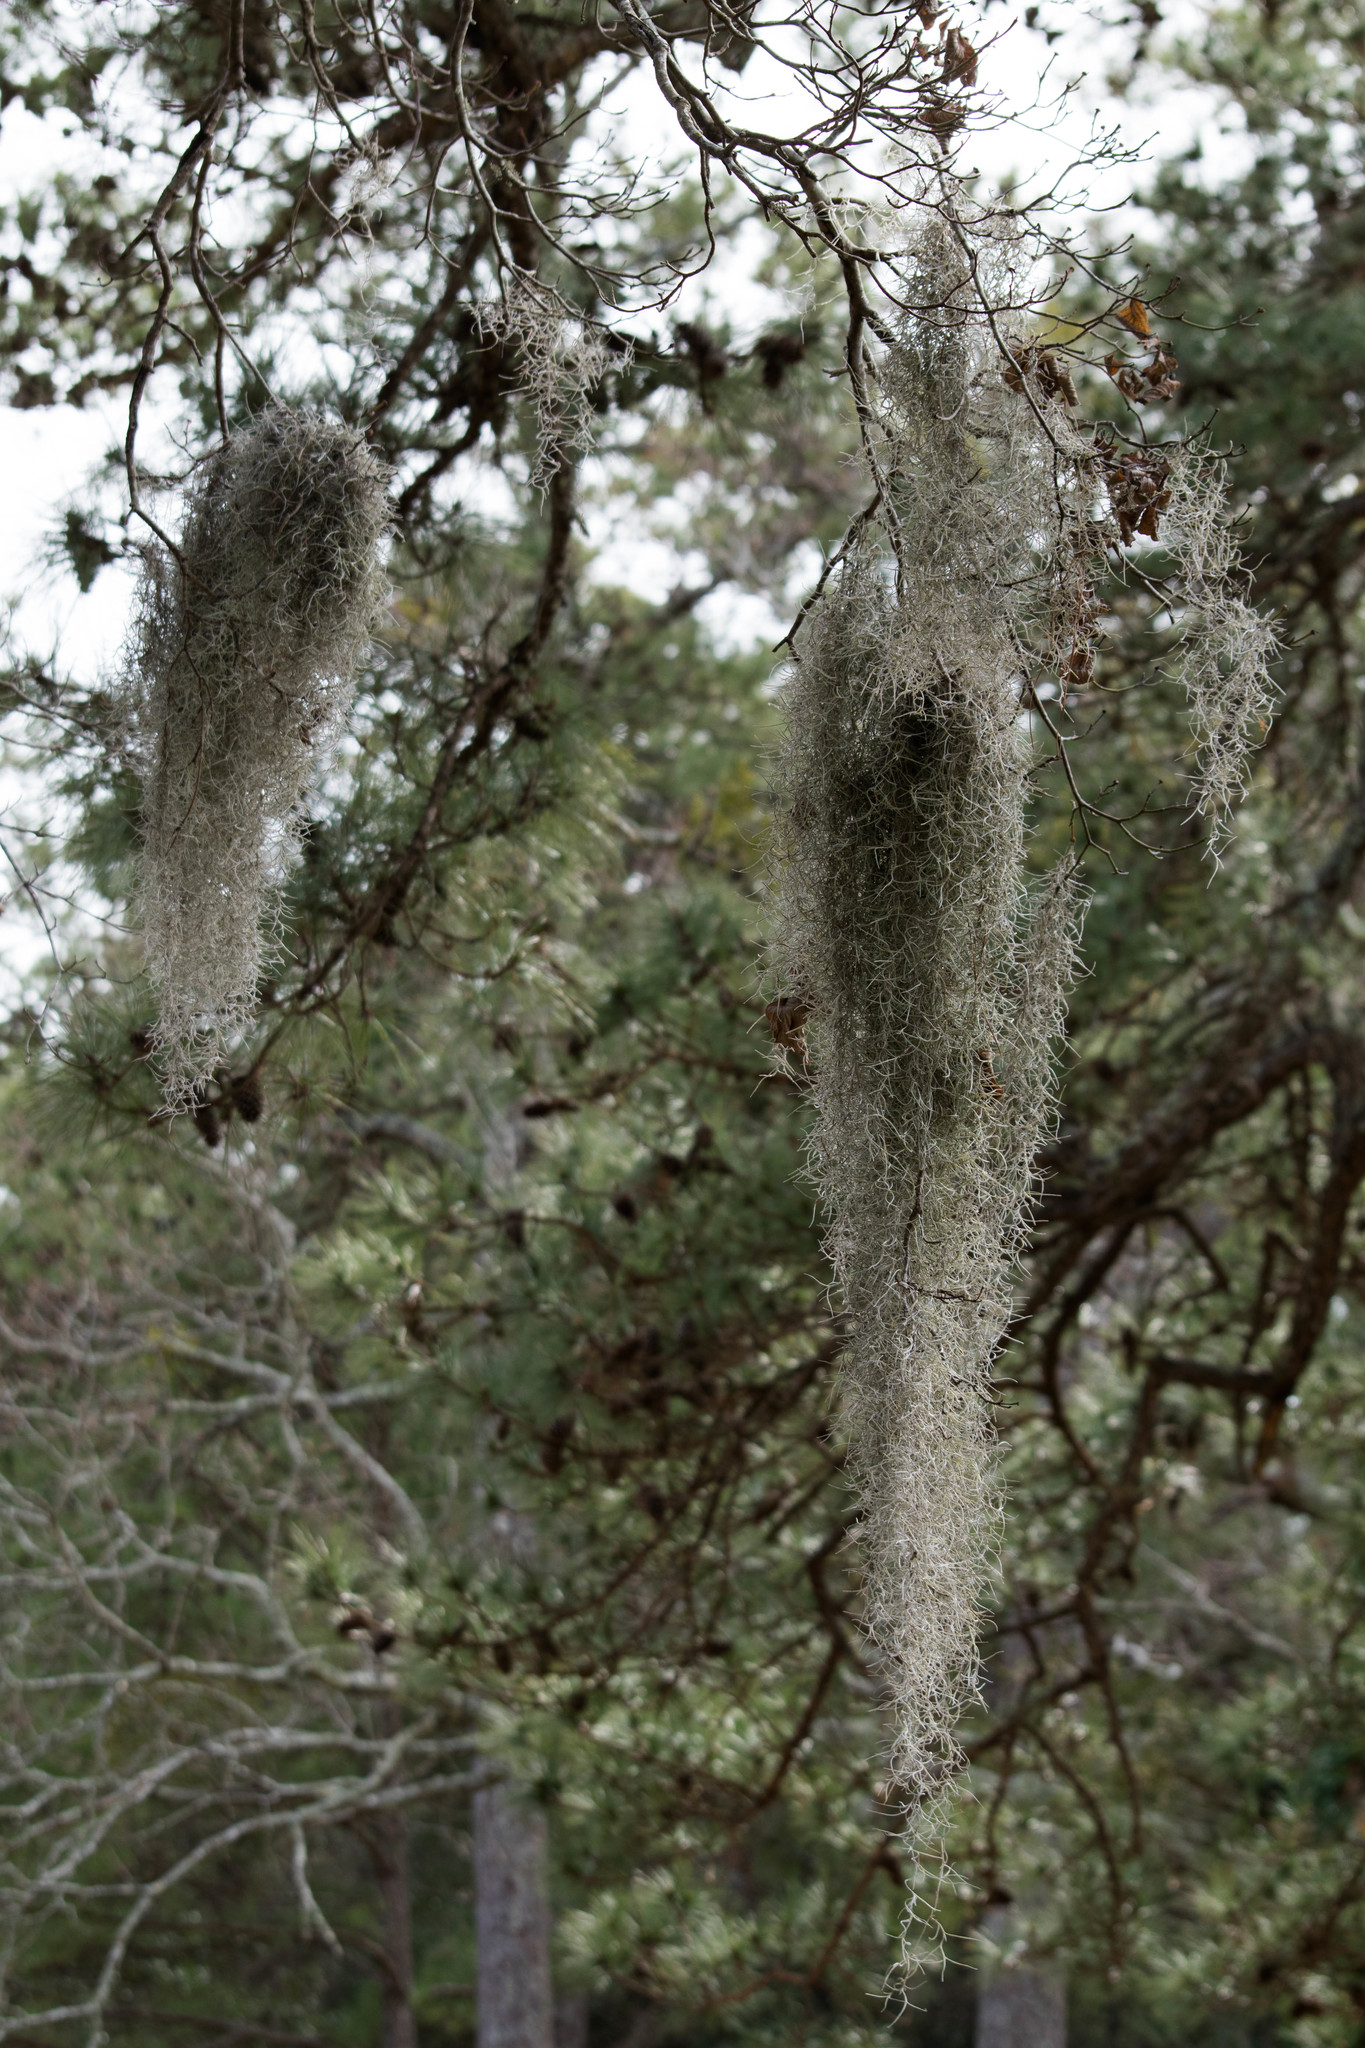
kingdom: Plantae
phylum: Tracheophyta
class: Liliopsida
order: Poales
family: Bromeliaceae
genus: Tillandsia
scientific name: Tillandsia usneoides
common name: Spanish moss
